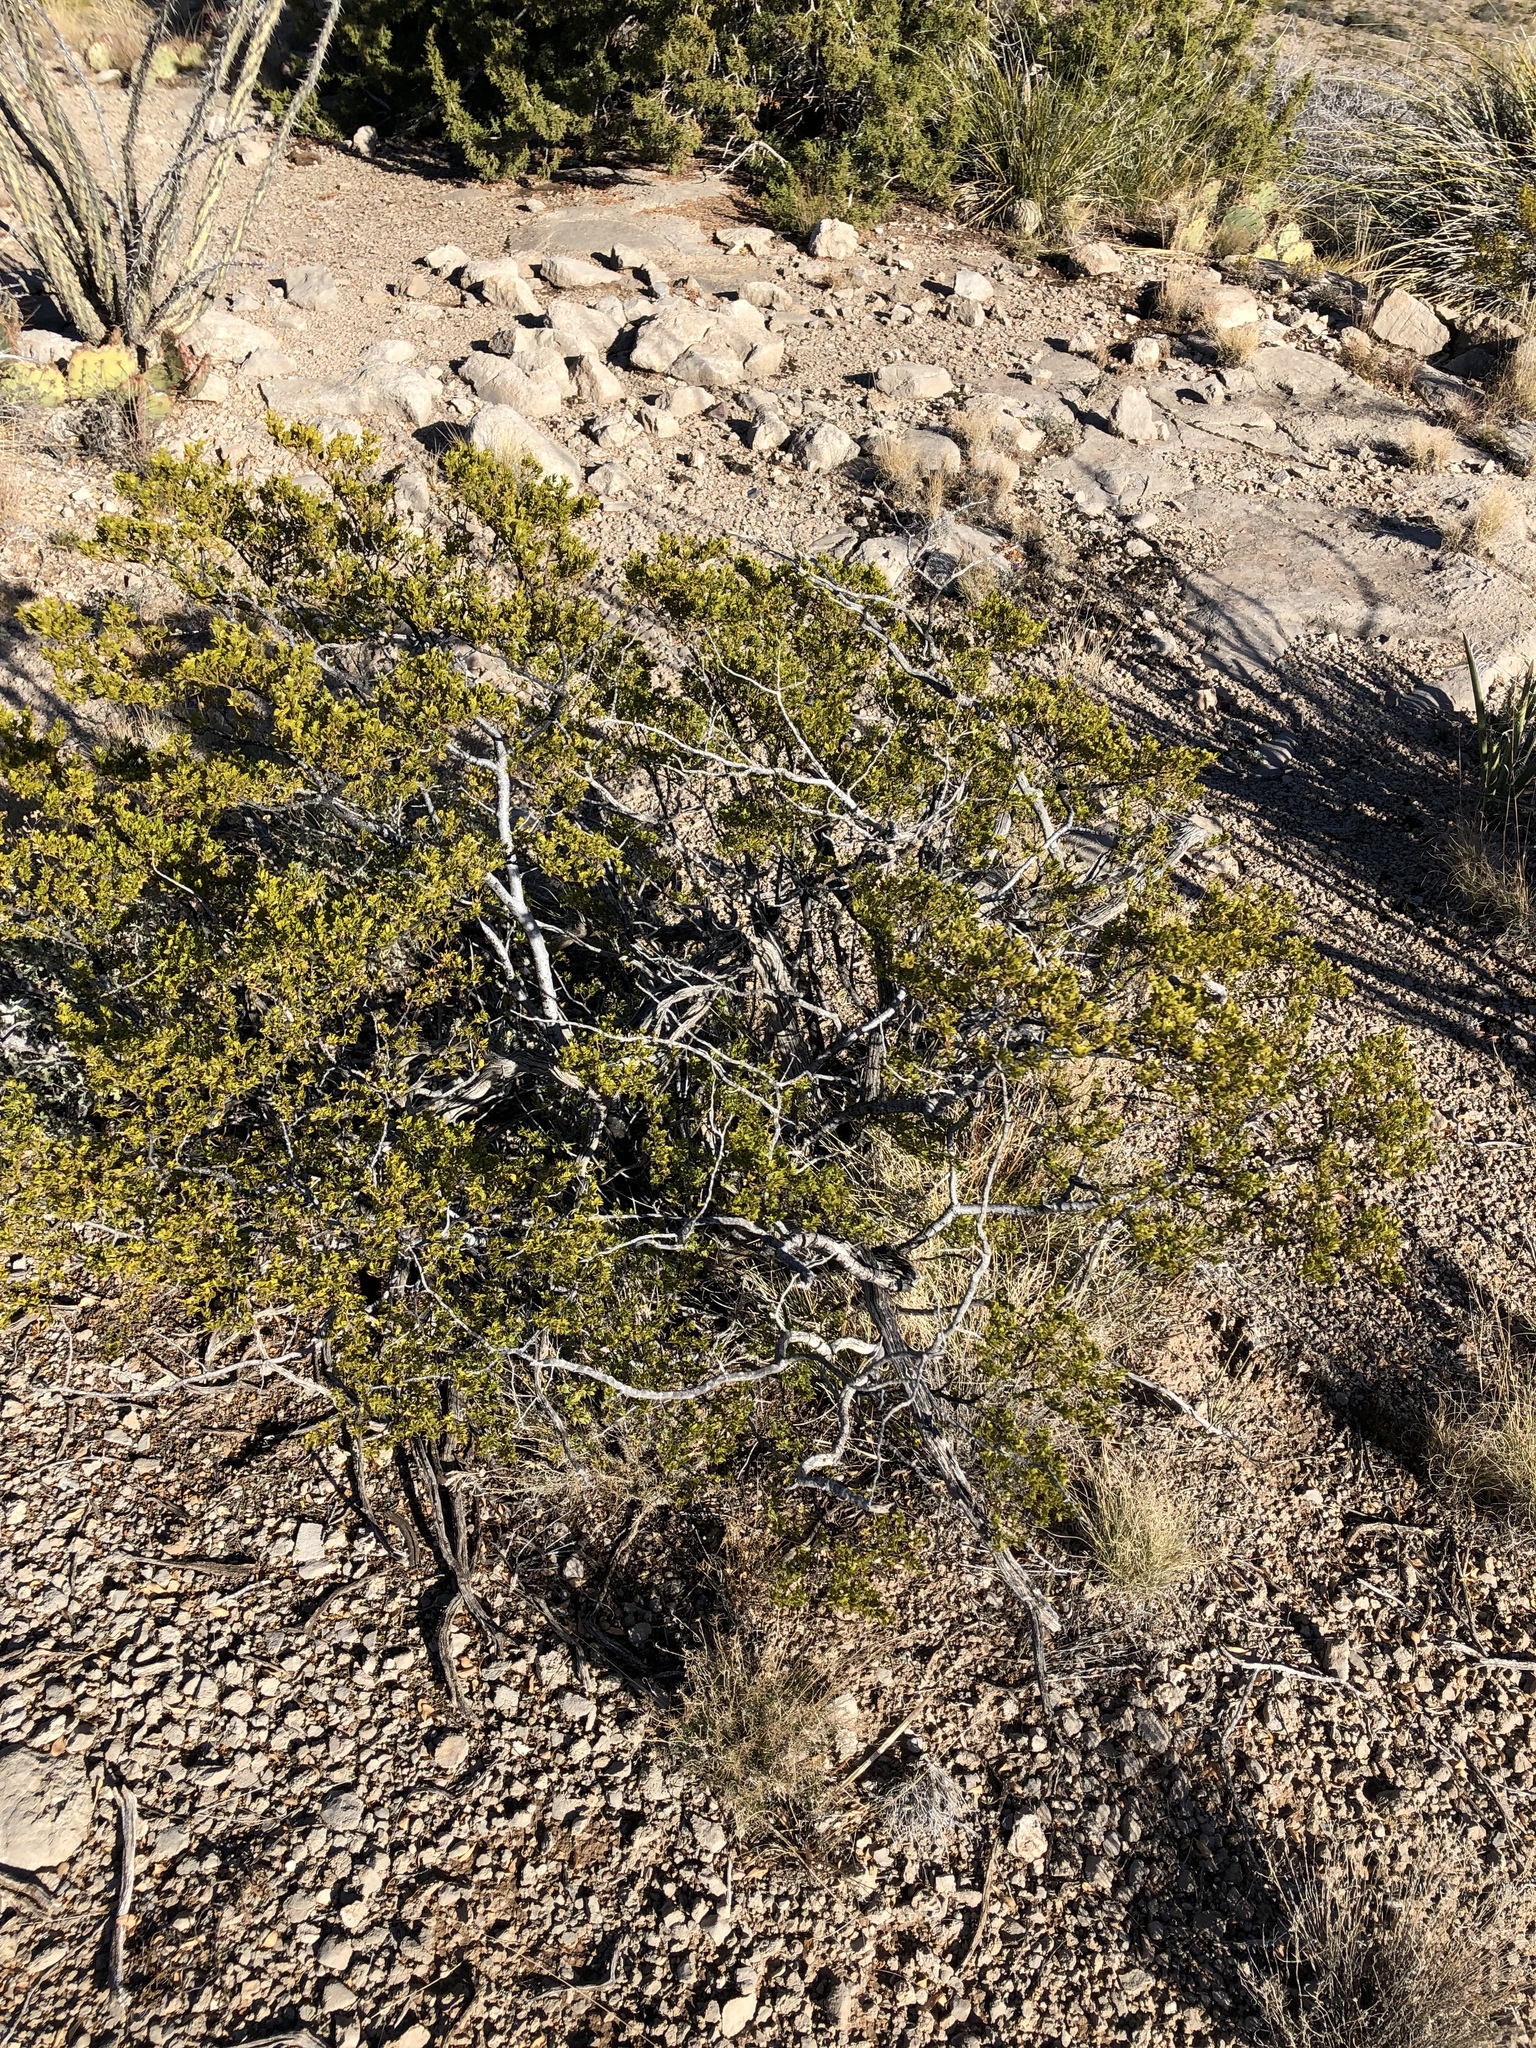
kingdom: Plantae
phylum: Tracheophyta
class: Magnoliopsida
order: Zygophyllales
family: Zygophyllaceae
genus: Larrea
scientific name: Larrea tridentata
